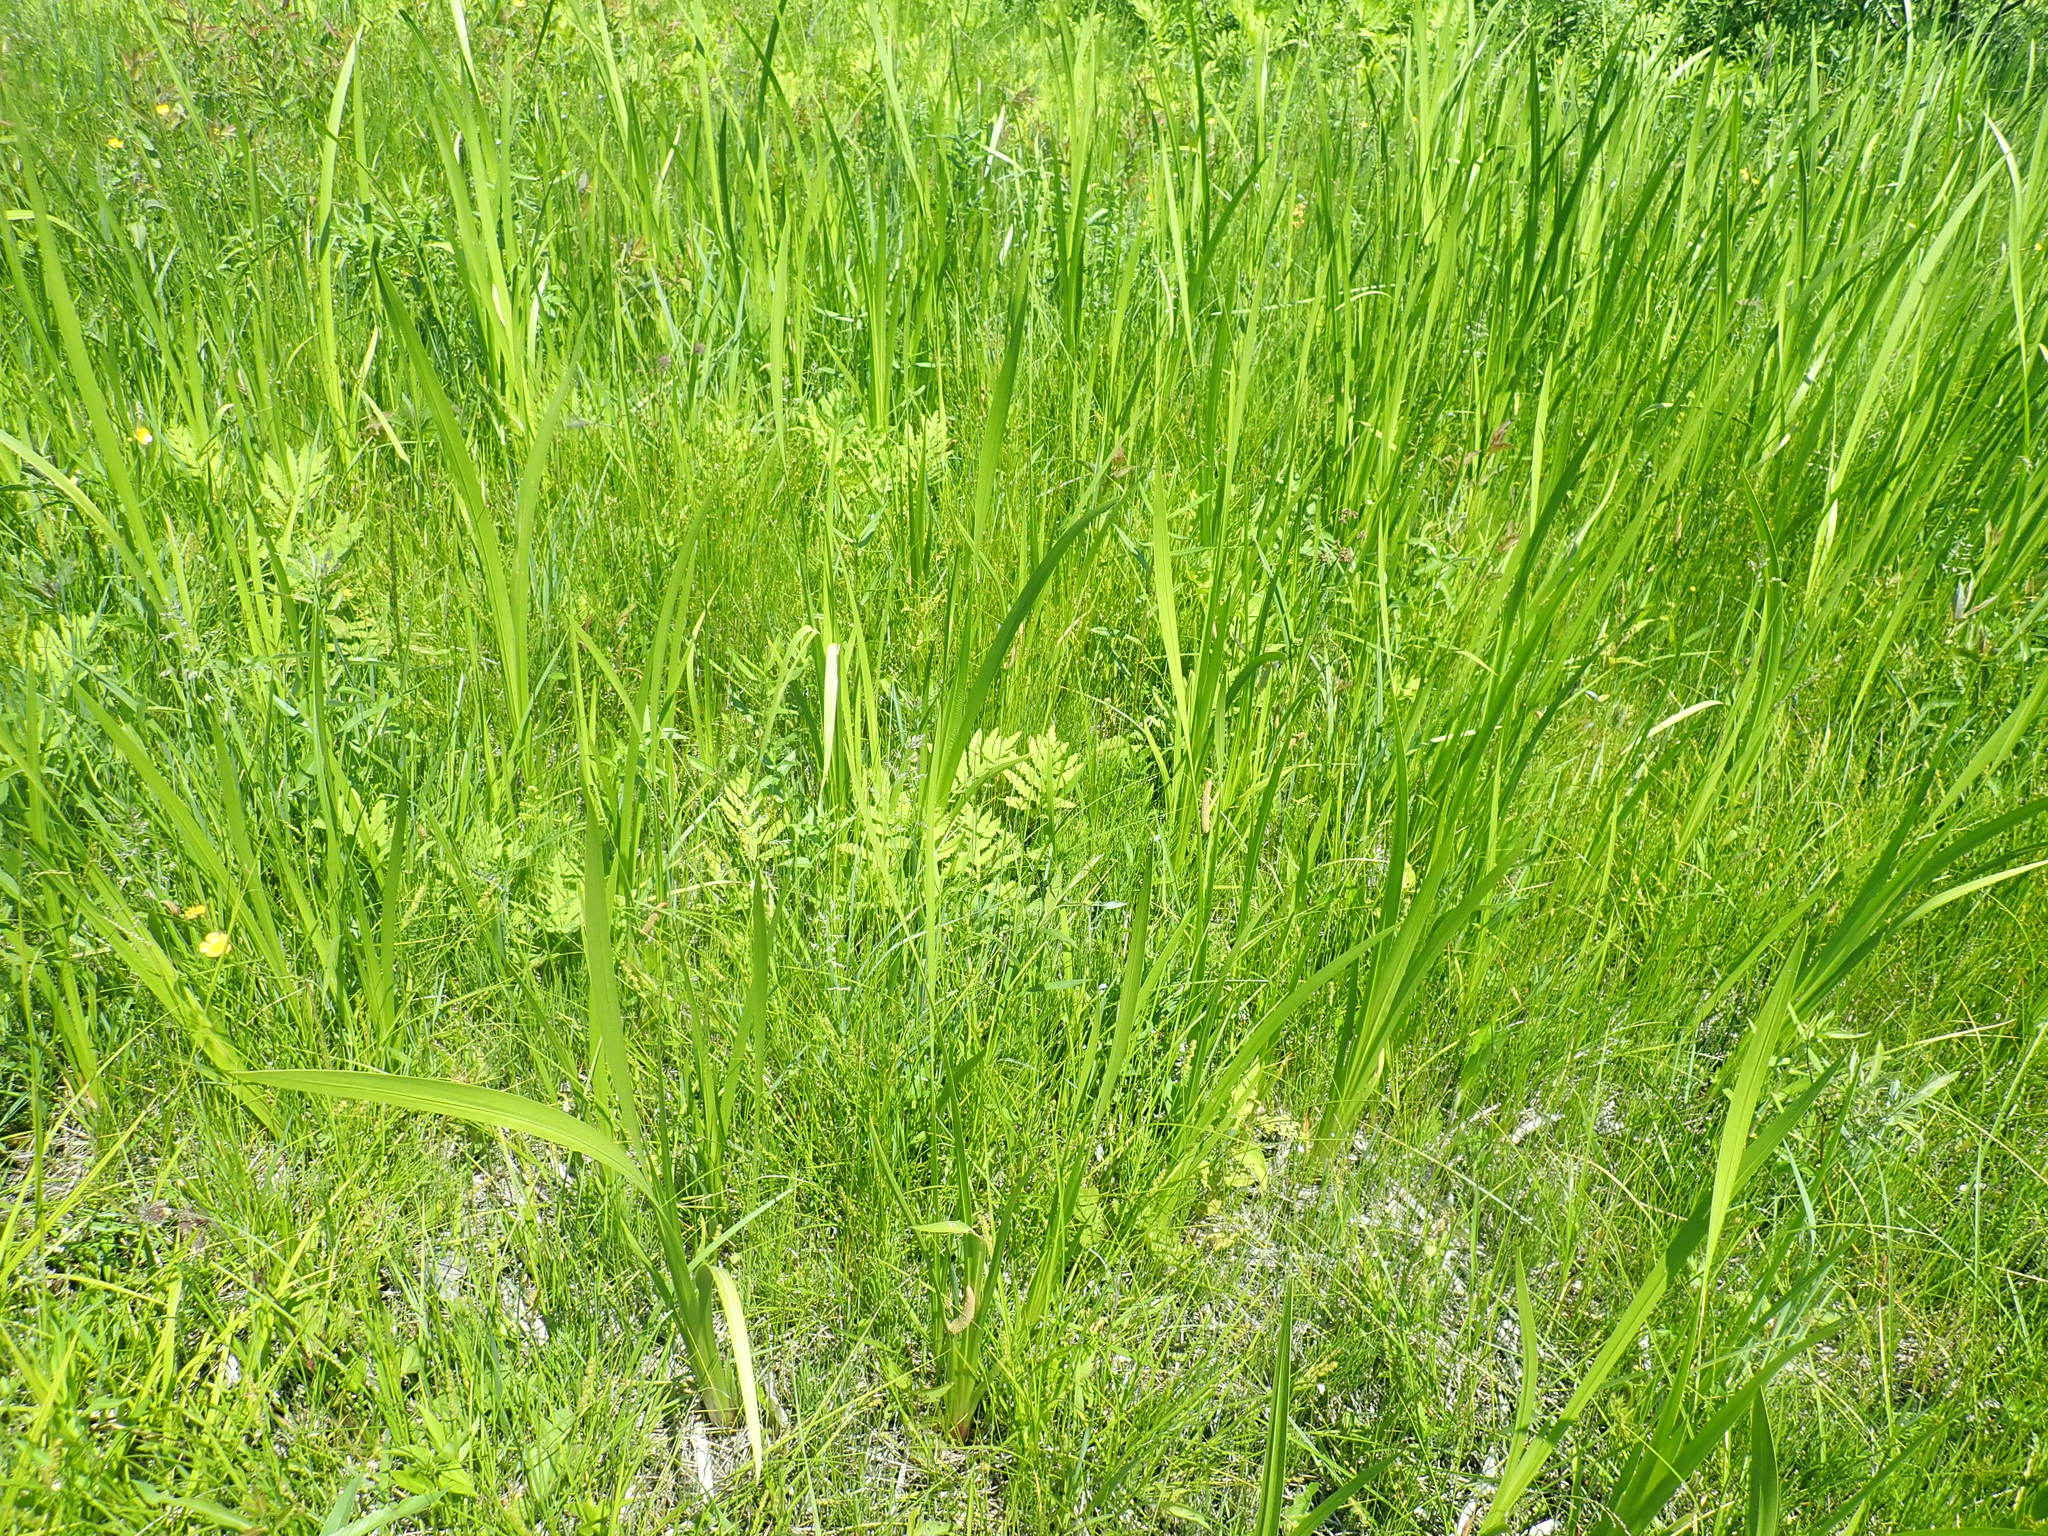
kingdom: Plantae
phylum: Tracheophyta
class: Liliopsida
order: Acorales
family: Acoraceae
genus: Acorus
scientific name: Acorus calamus
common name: Sweet-flag
